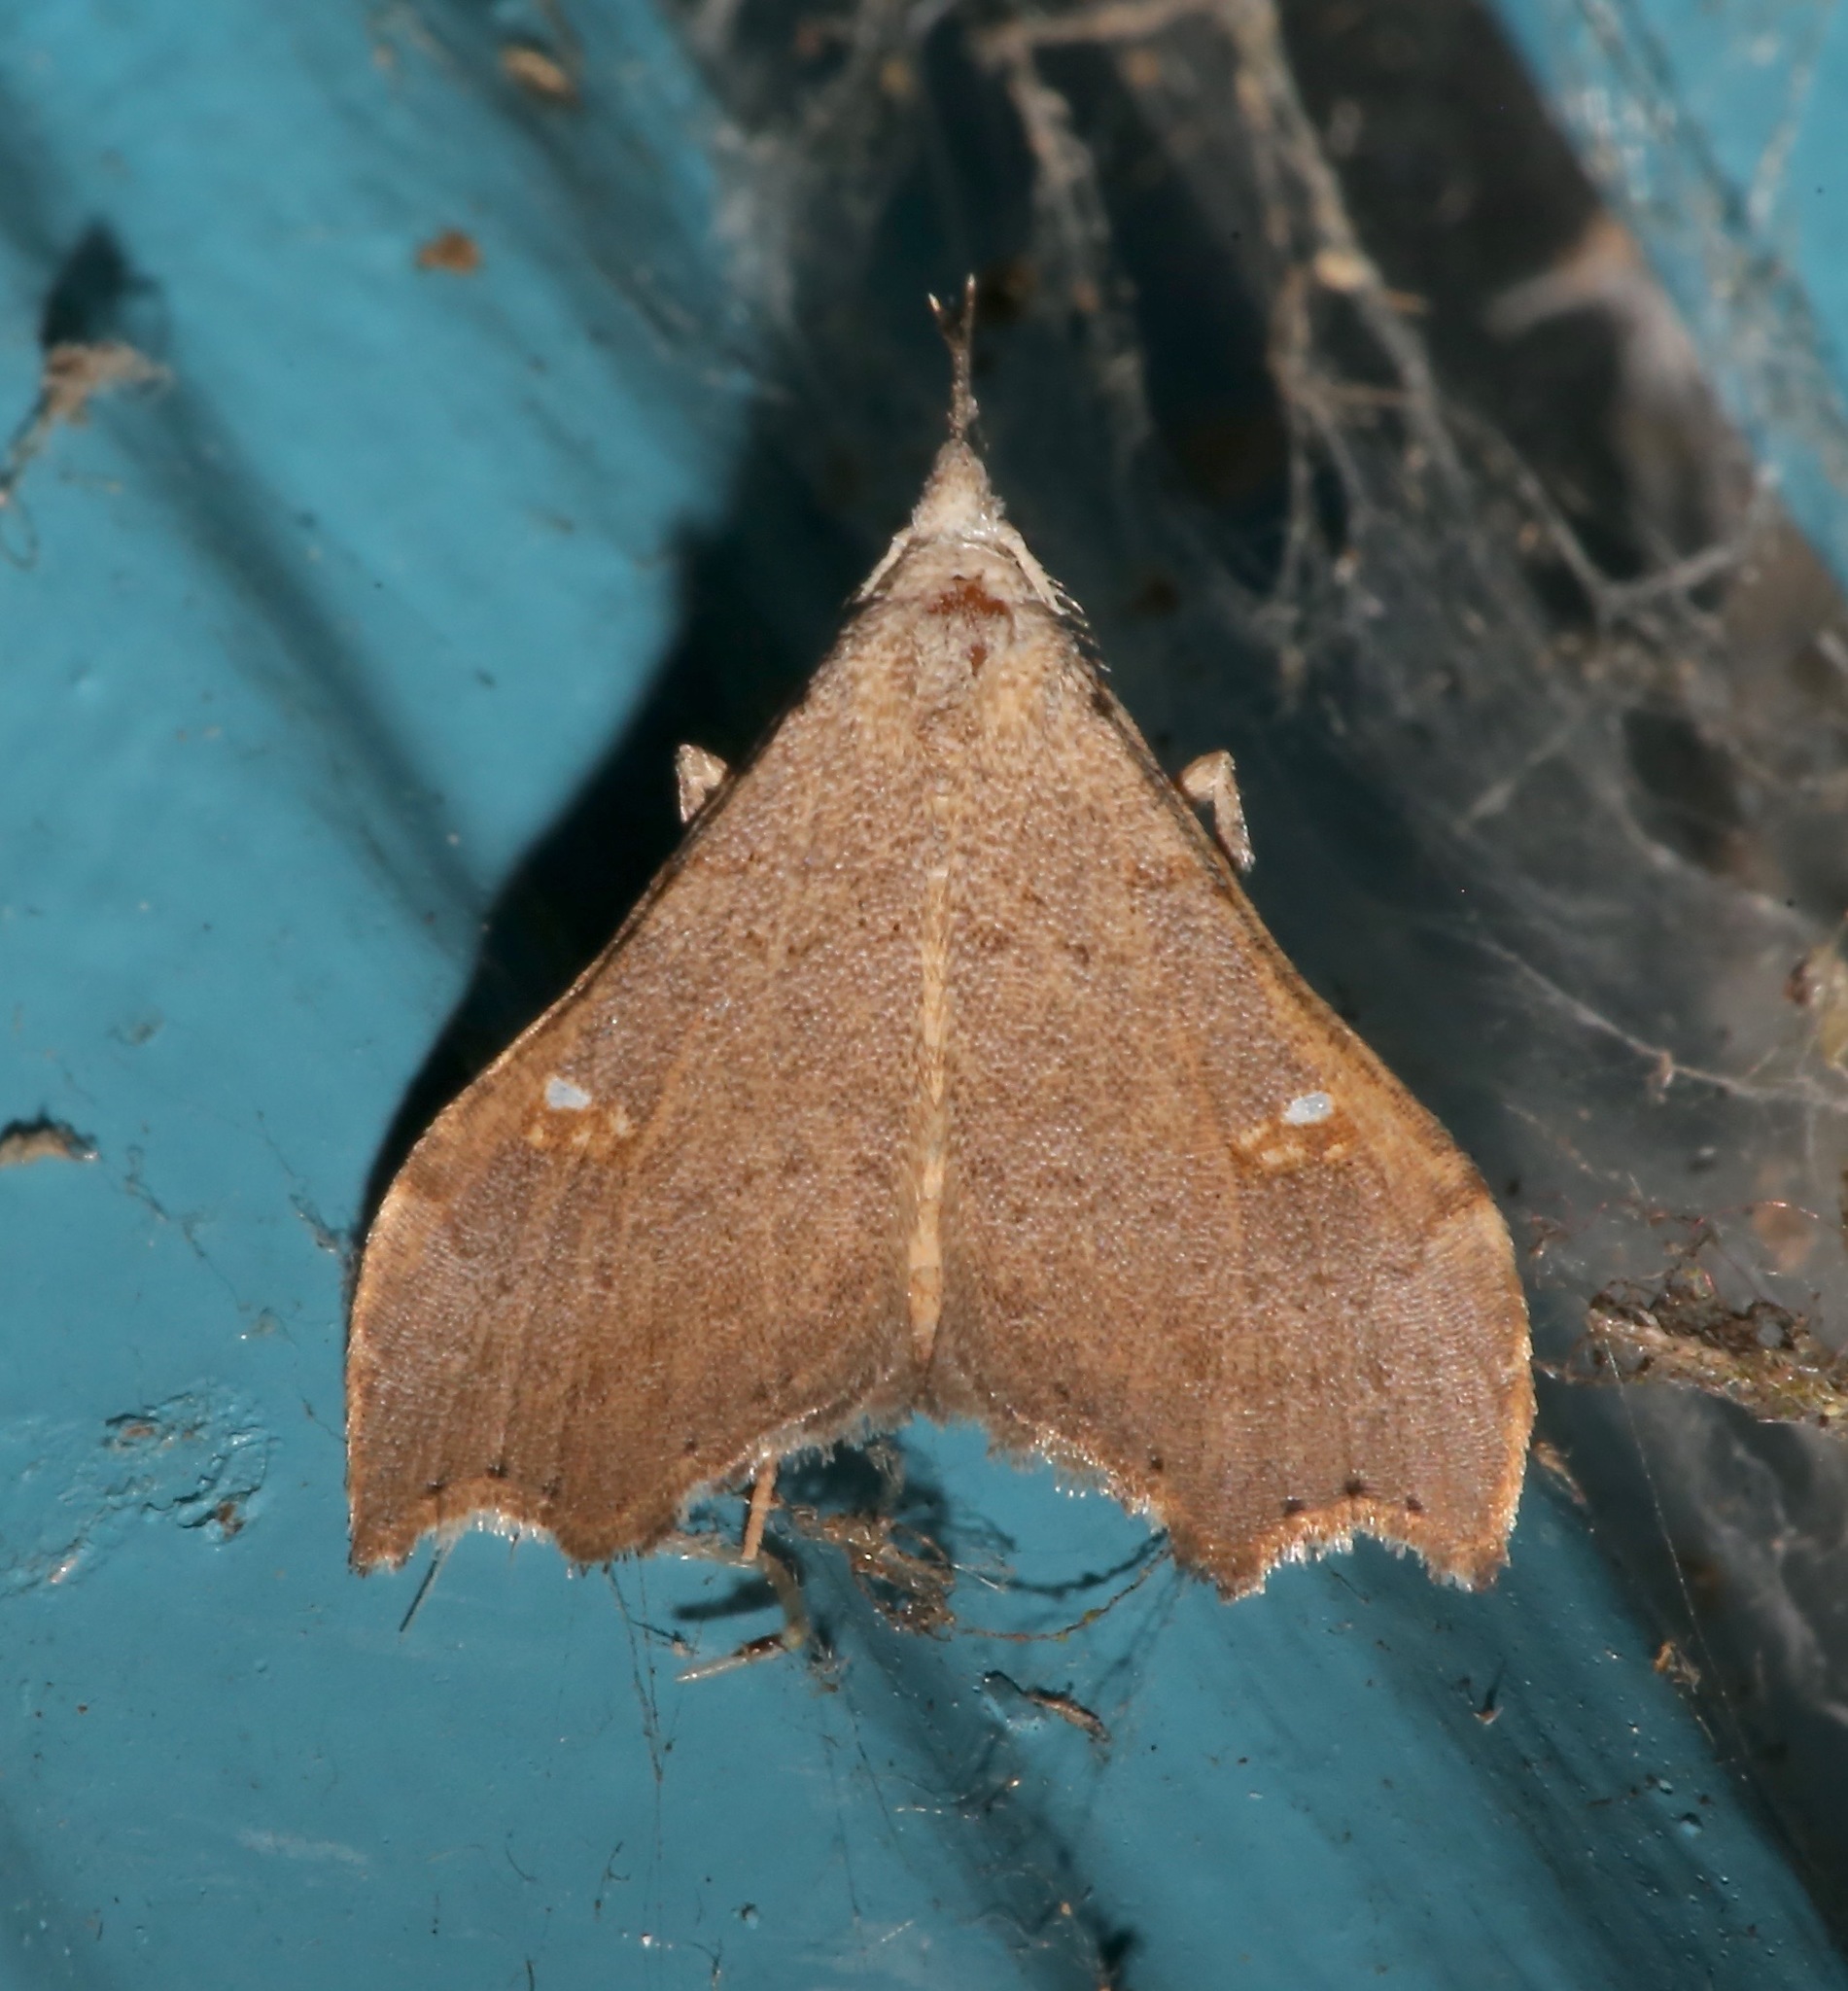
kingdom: Animalia
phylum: Arthropoda
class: Insecta
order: Lepidoptera
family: Erebidae
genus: Redectis
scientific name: Redectis vitrea
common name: White-spotted redectis
